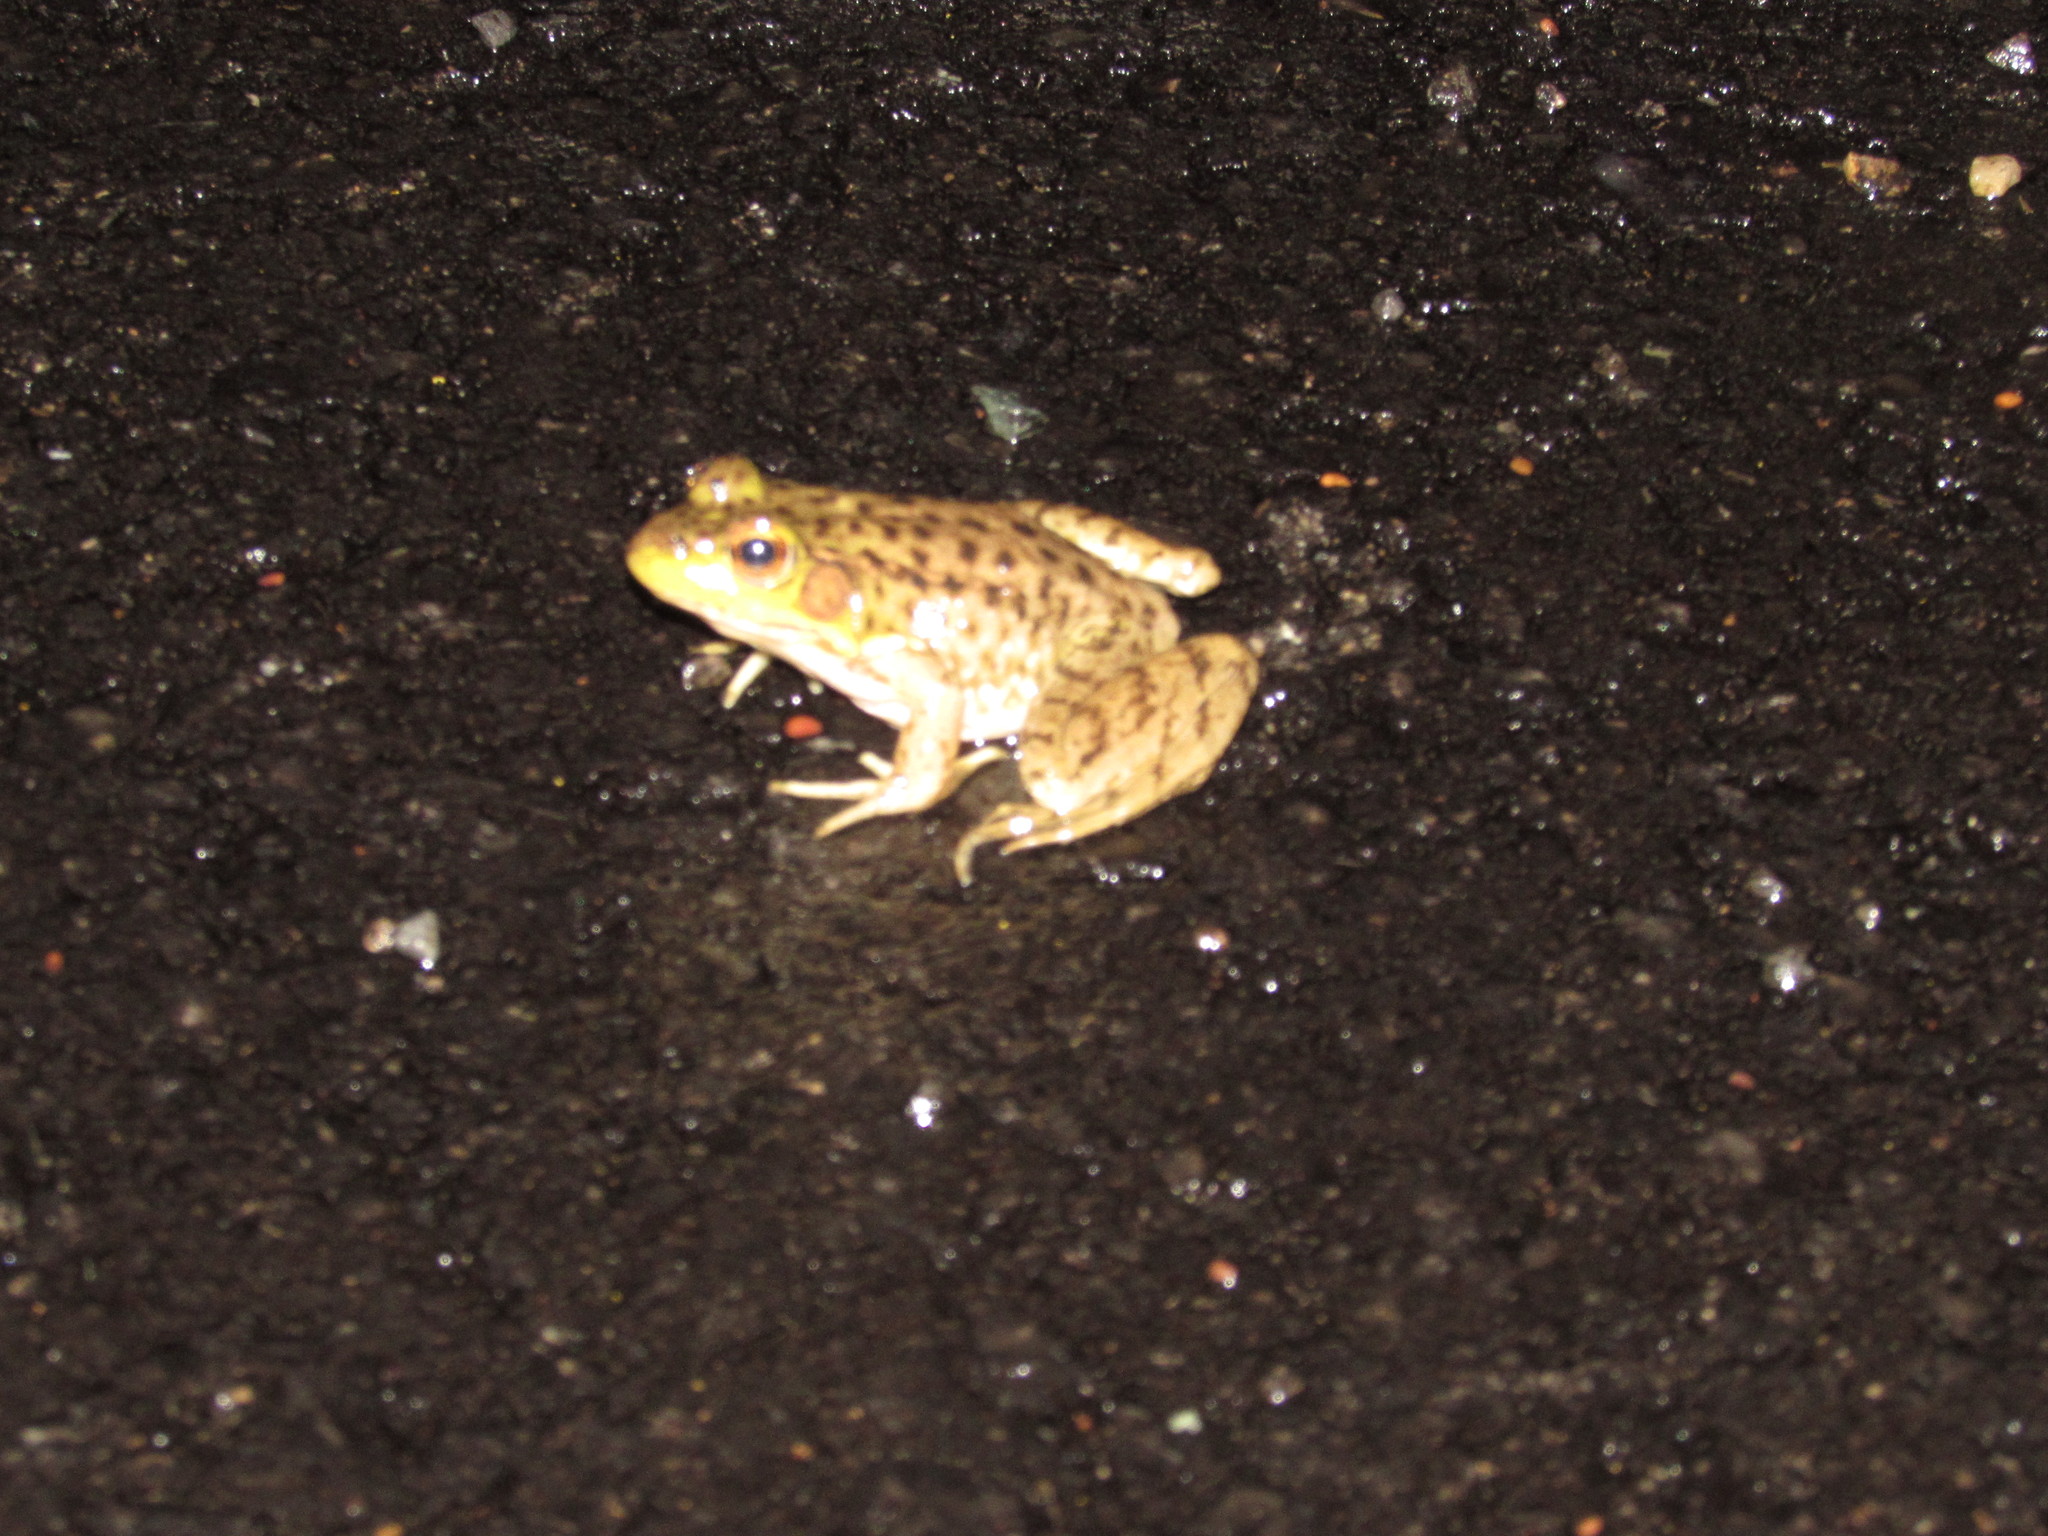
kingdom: Animalia
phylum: Chordata
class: Amphibia
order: Anura
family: Ranidae
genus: Lithobates
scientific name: Lithobates catesbeianus
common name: American bullfrog
